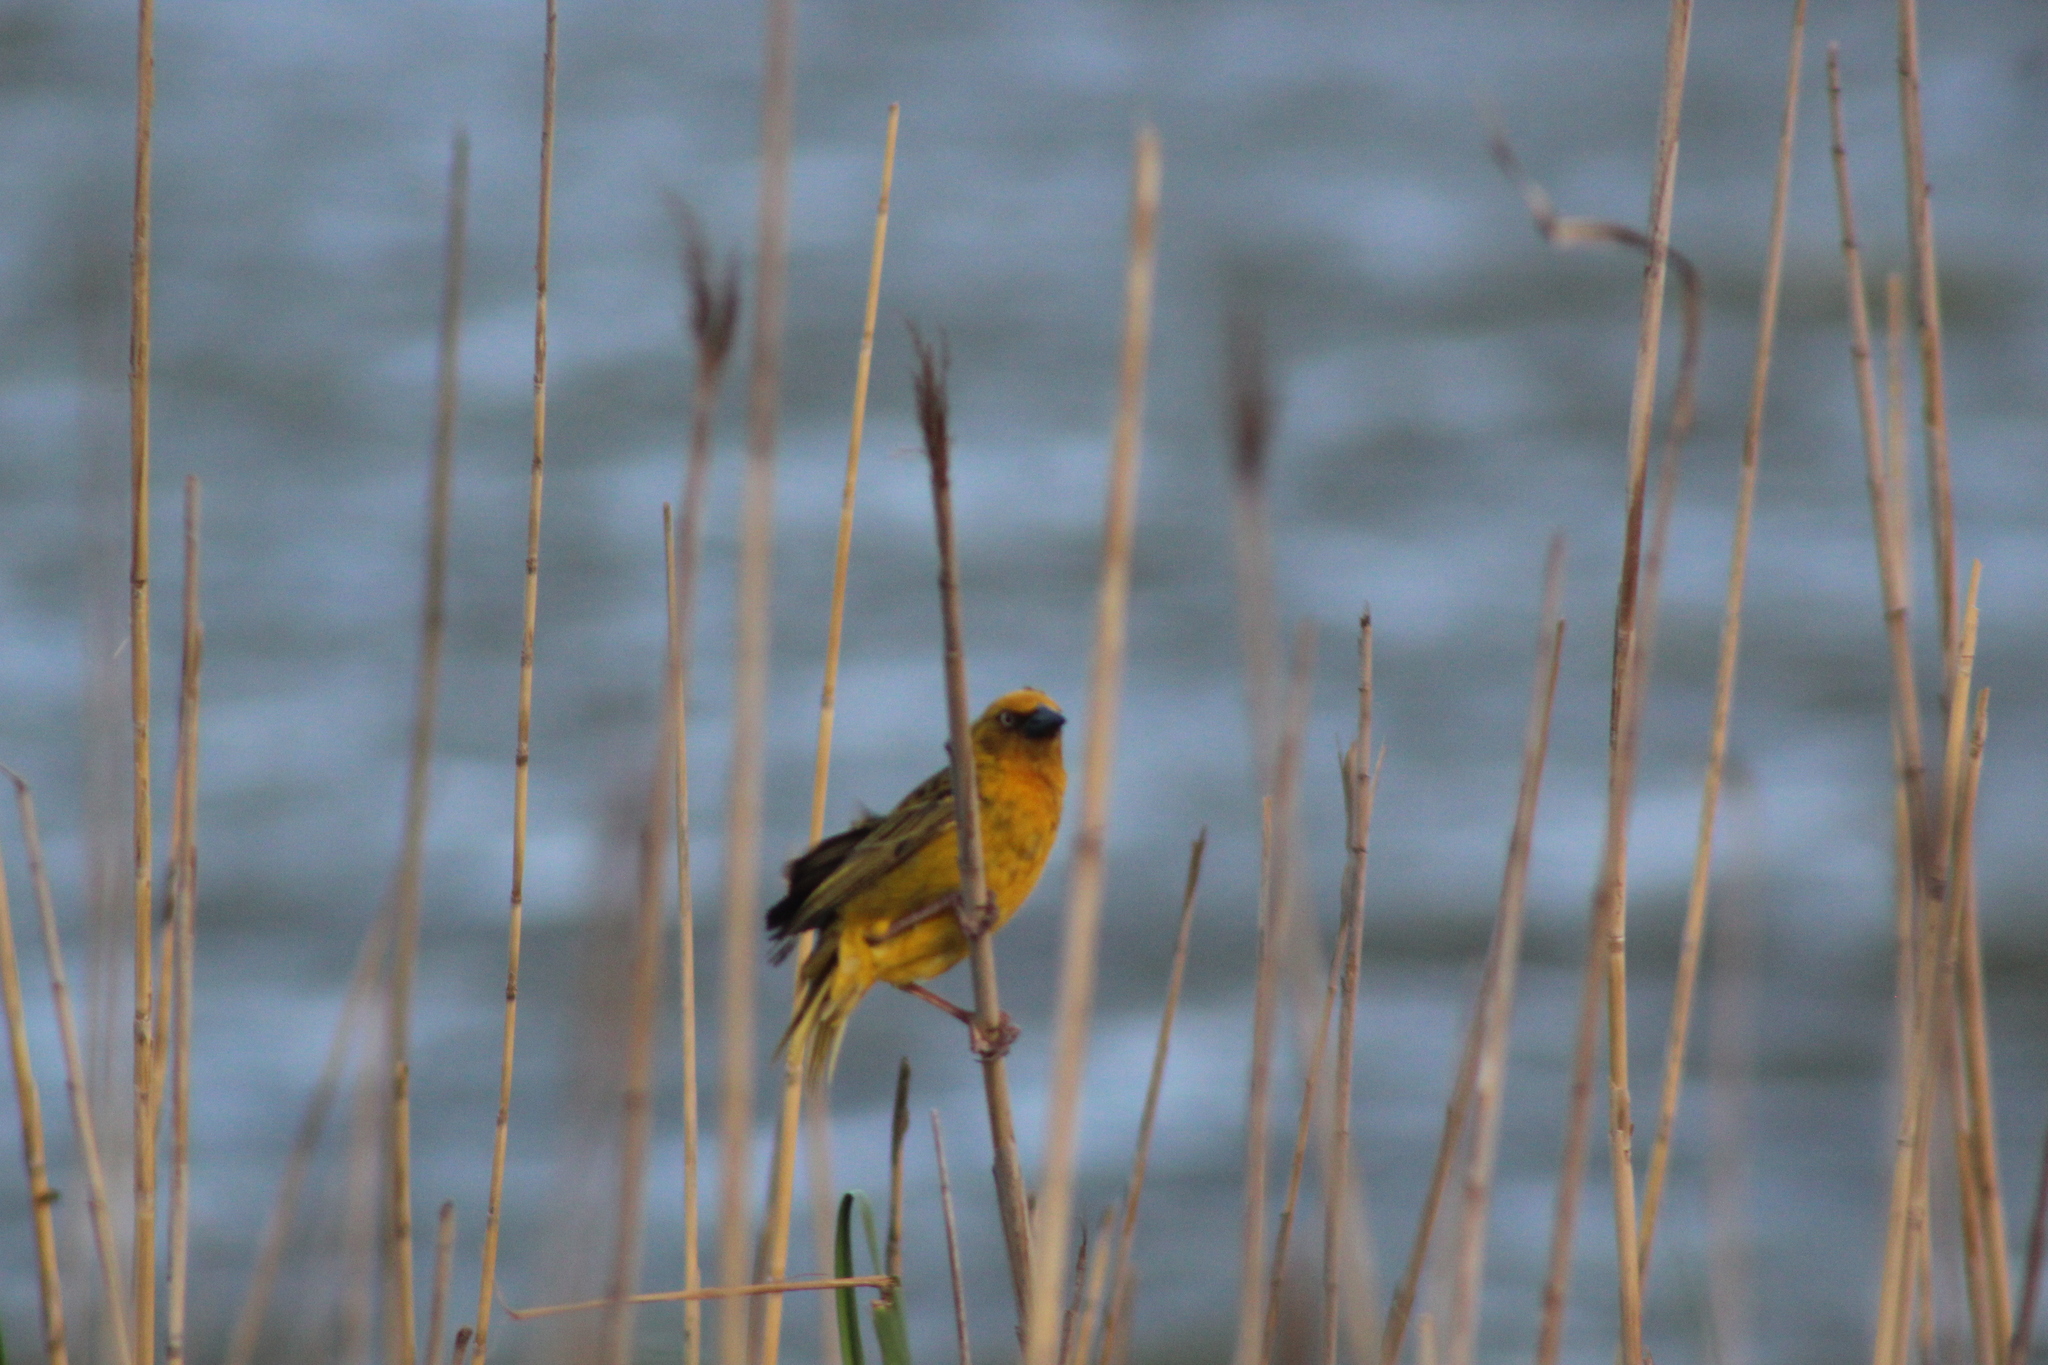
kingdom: Animalia
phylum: Chordata
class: Aves
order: Passeriformes
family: Ploceidae
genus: Ploceus
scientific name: Ploceus capensis
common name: Cape weaver
